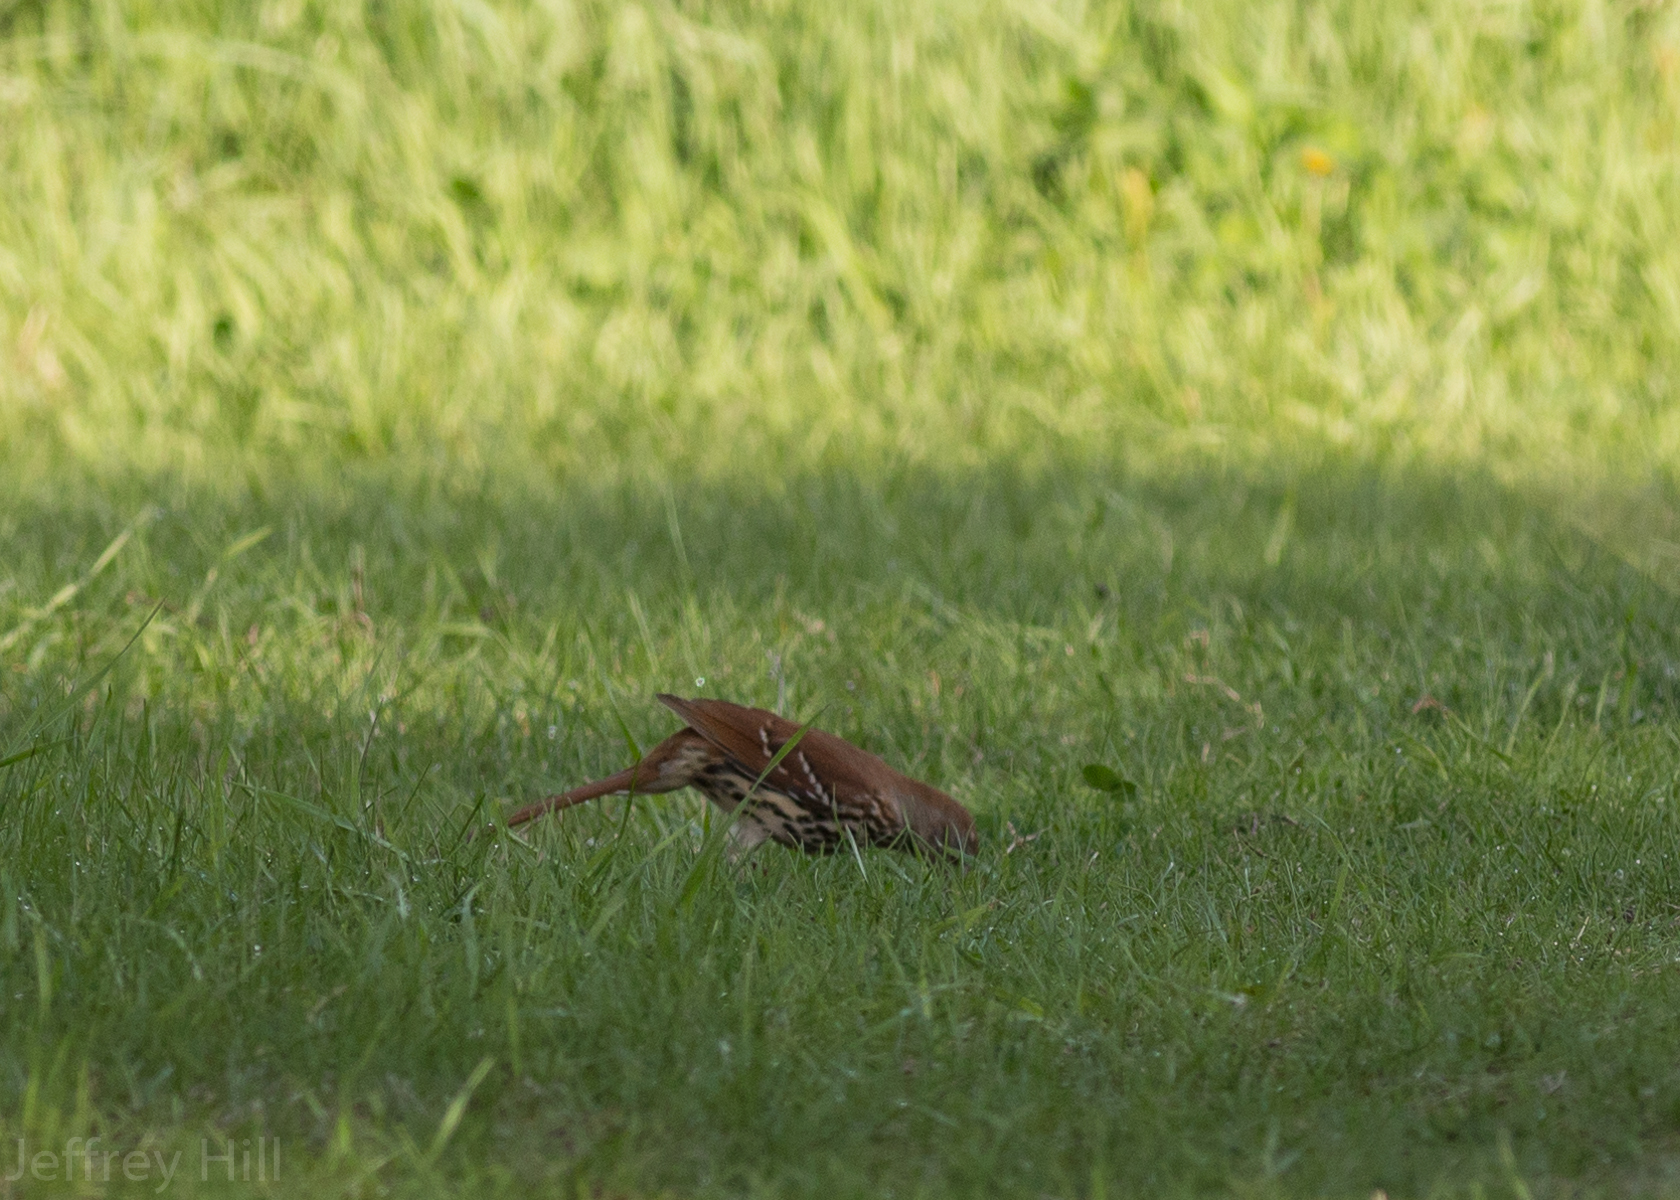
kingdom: Animalia
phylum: Chordata
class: Aves
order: Passeriformes
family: Mimidae
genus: Toxostoma
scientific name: Toxostoma rufum
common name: Brown thrasher
